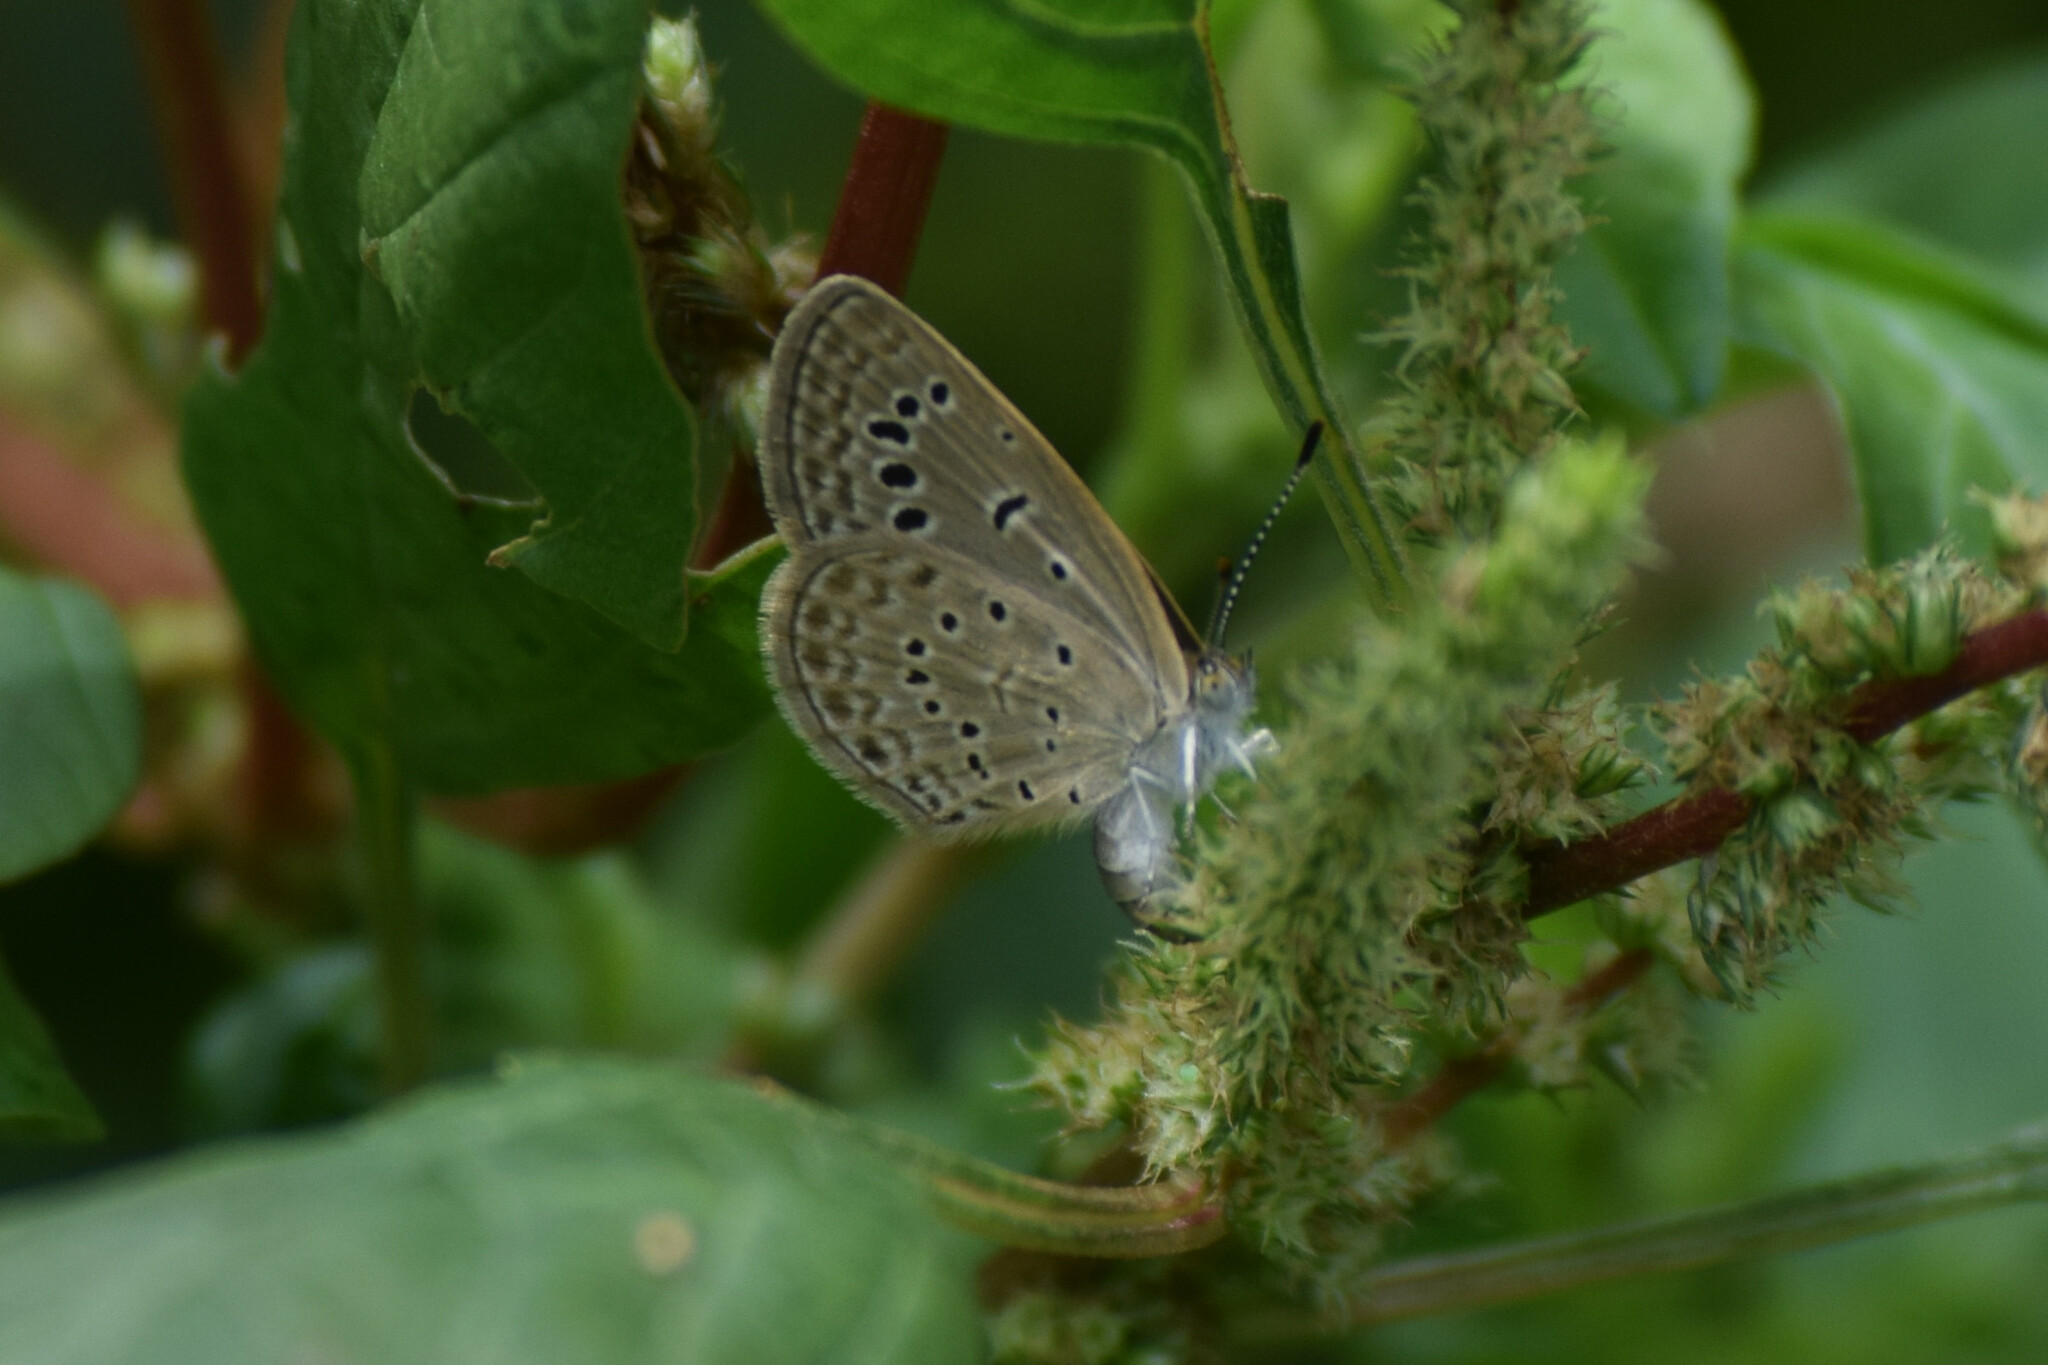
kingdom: Animalia
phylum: Arthropoda
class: Insecta
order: Lepidoptera
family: Lycaenidae
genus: Zizeeria
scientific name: Zizeeria karsandra
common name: Dark grass blue
